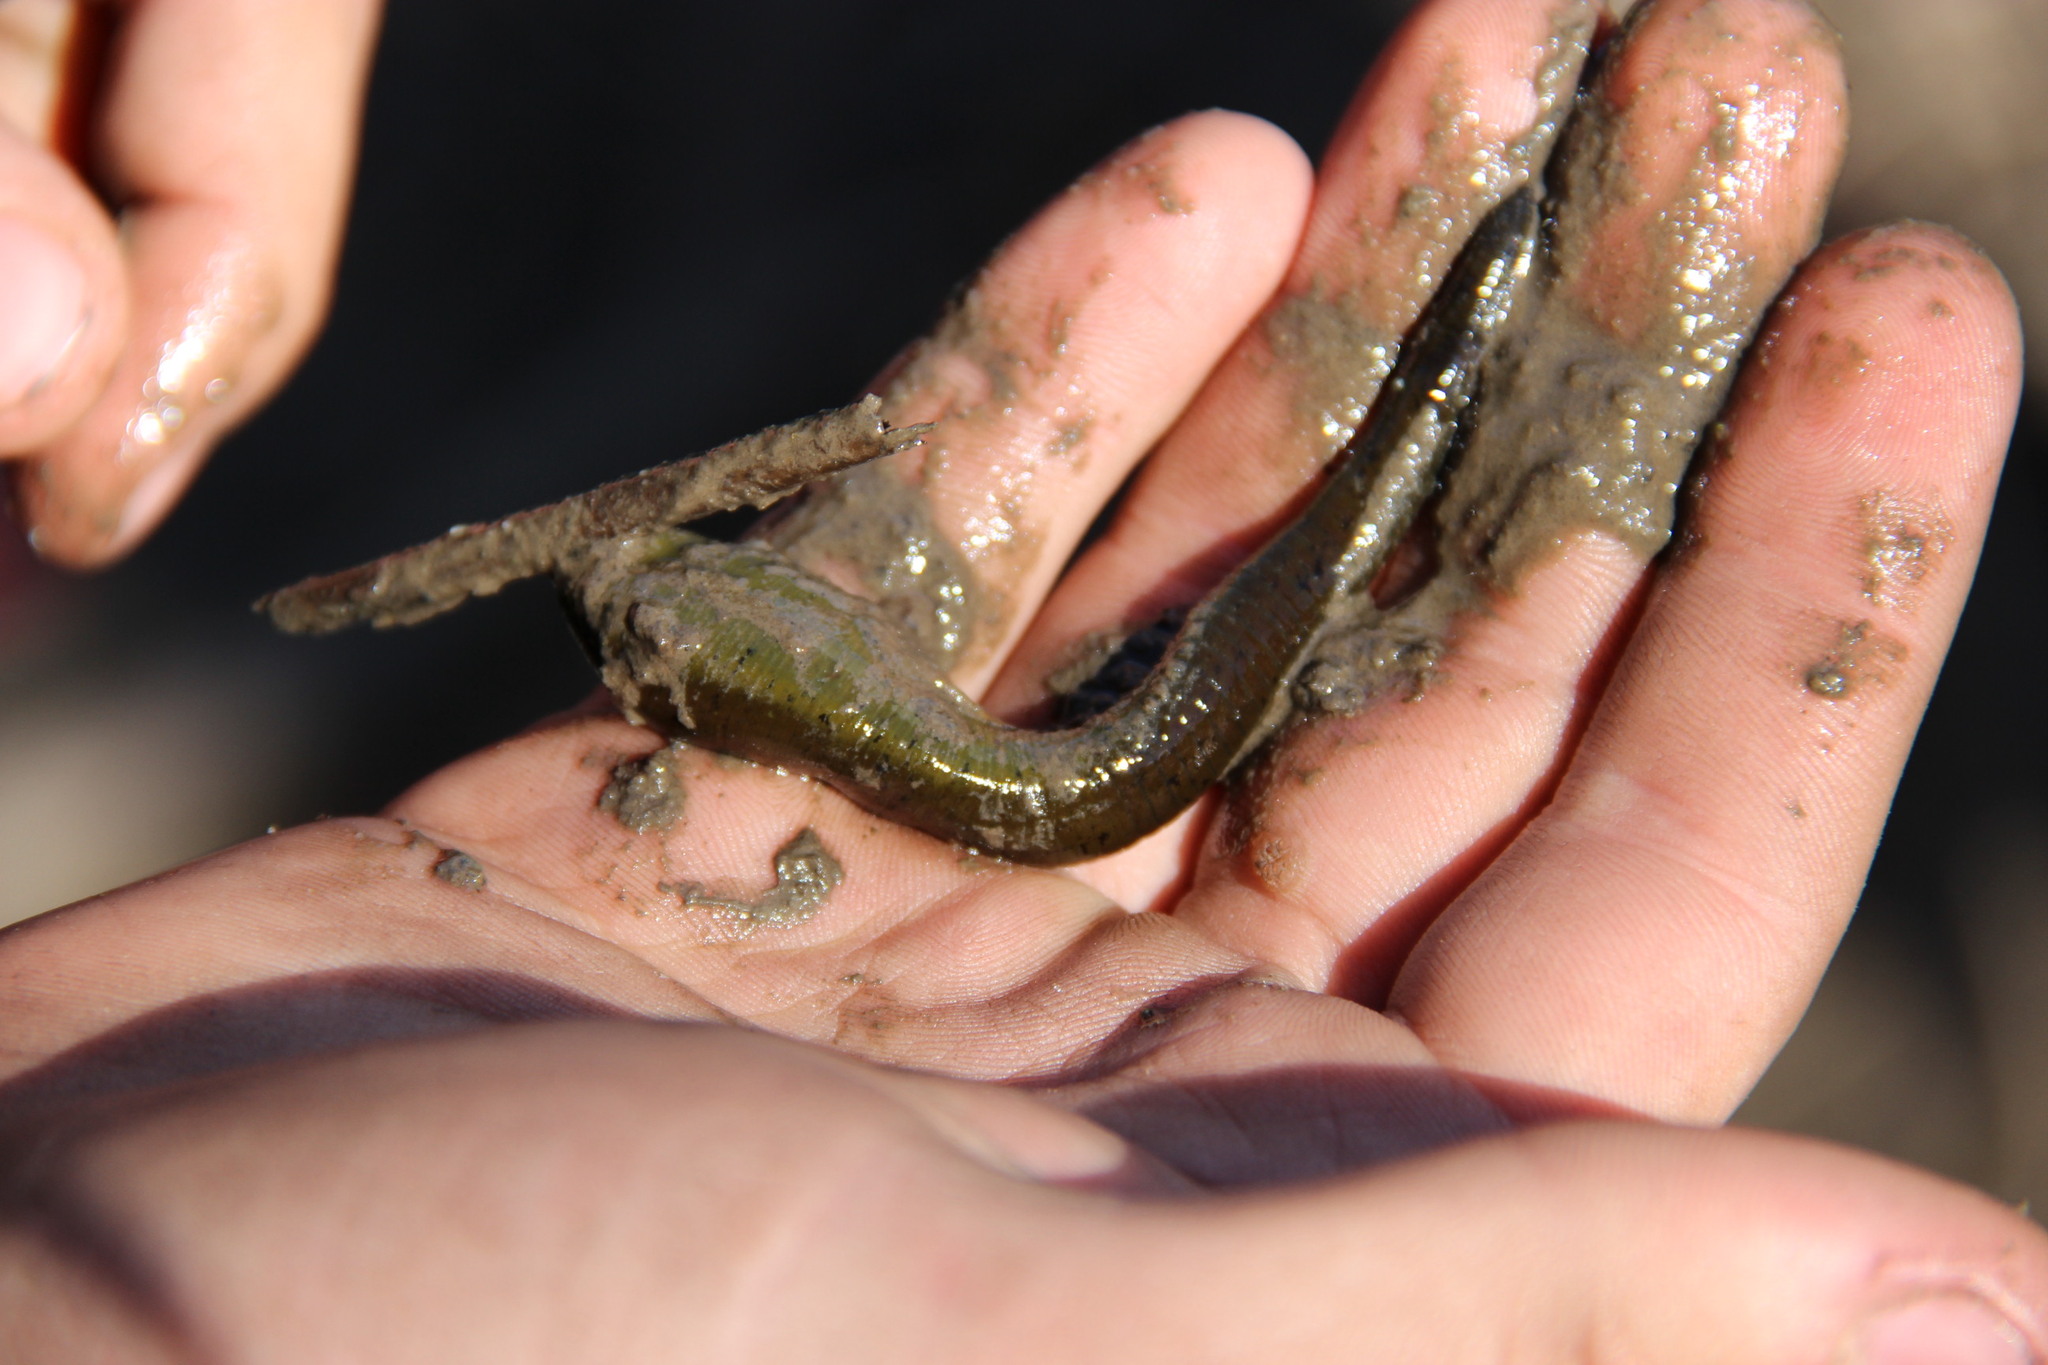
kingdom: Animalia
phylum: Annelida
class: Clitellata
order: Arhynchobdellida
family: Haemopidae
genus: Haemopis
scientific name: Haemopis sanguisuga
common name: Horse leech
